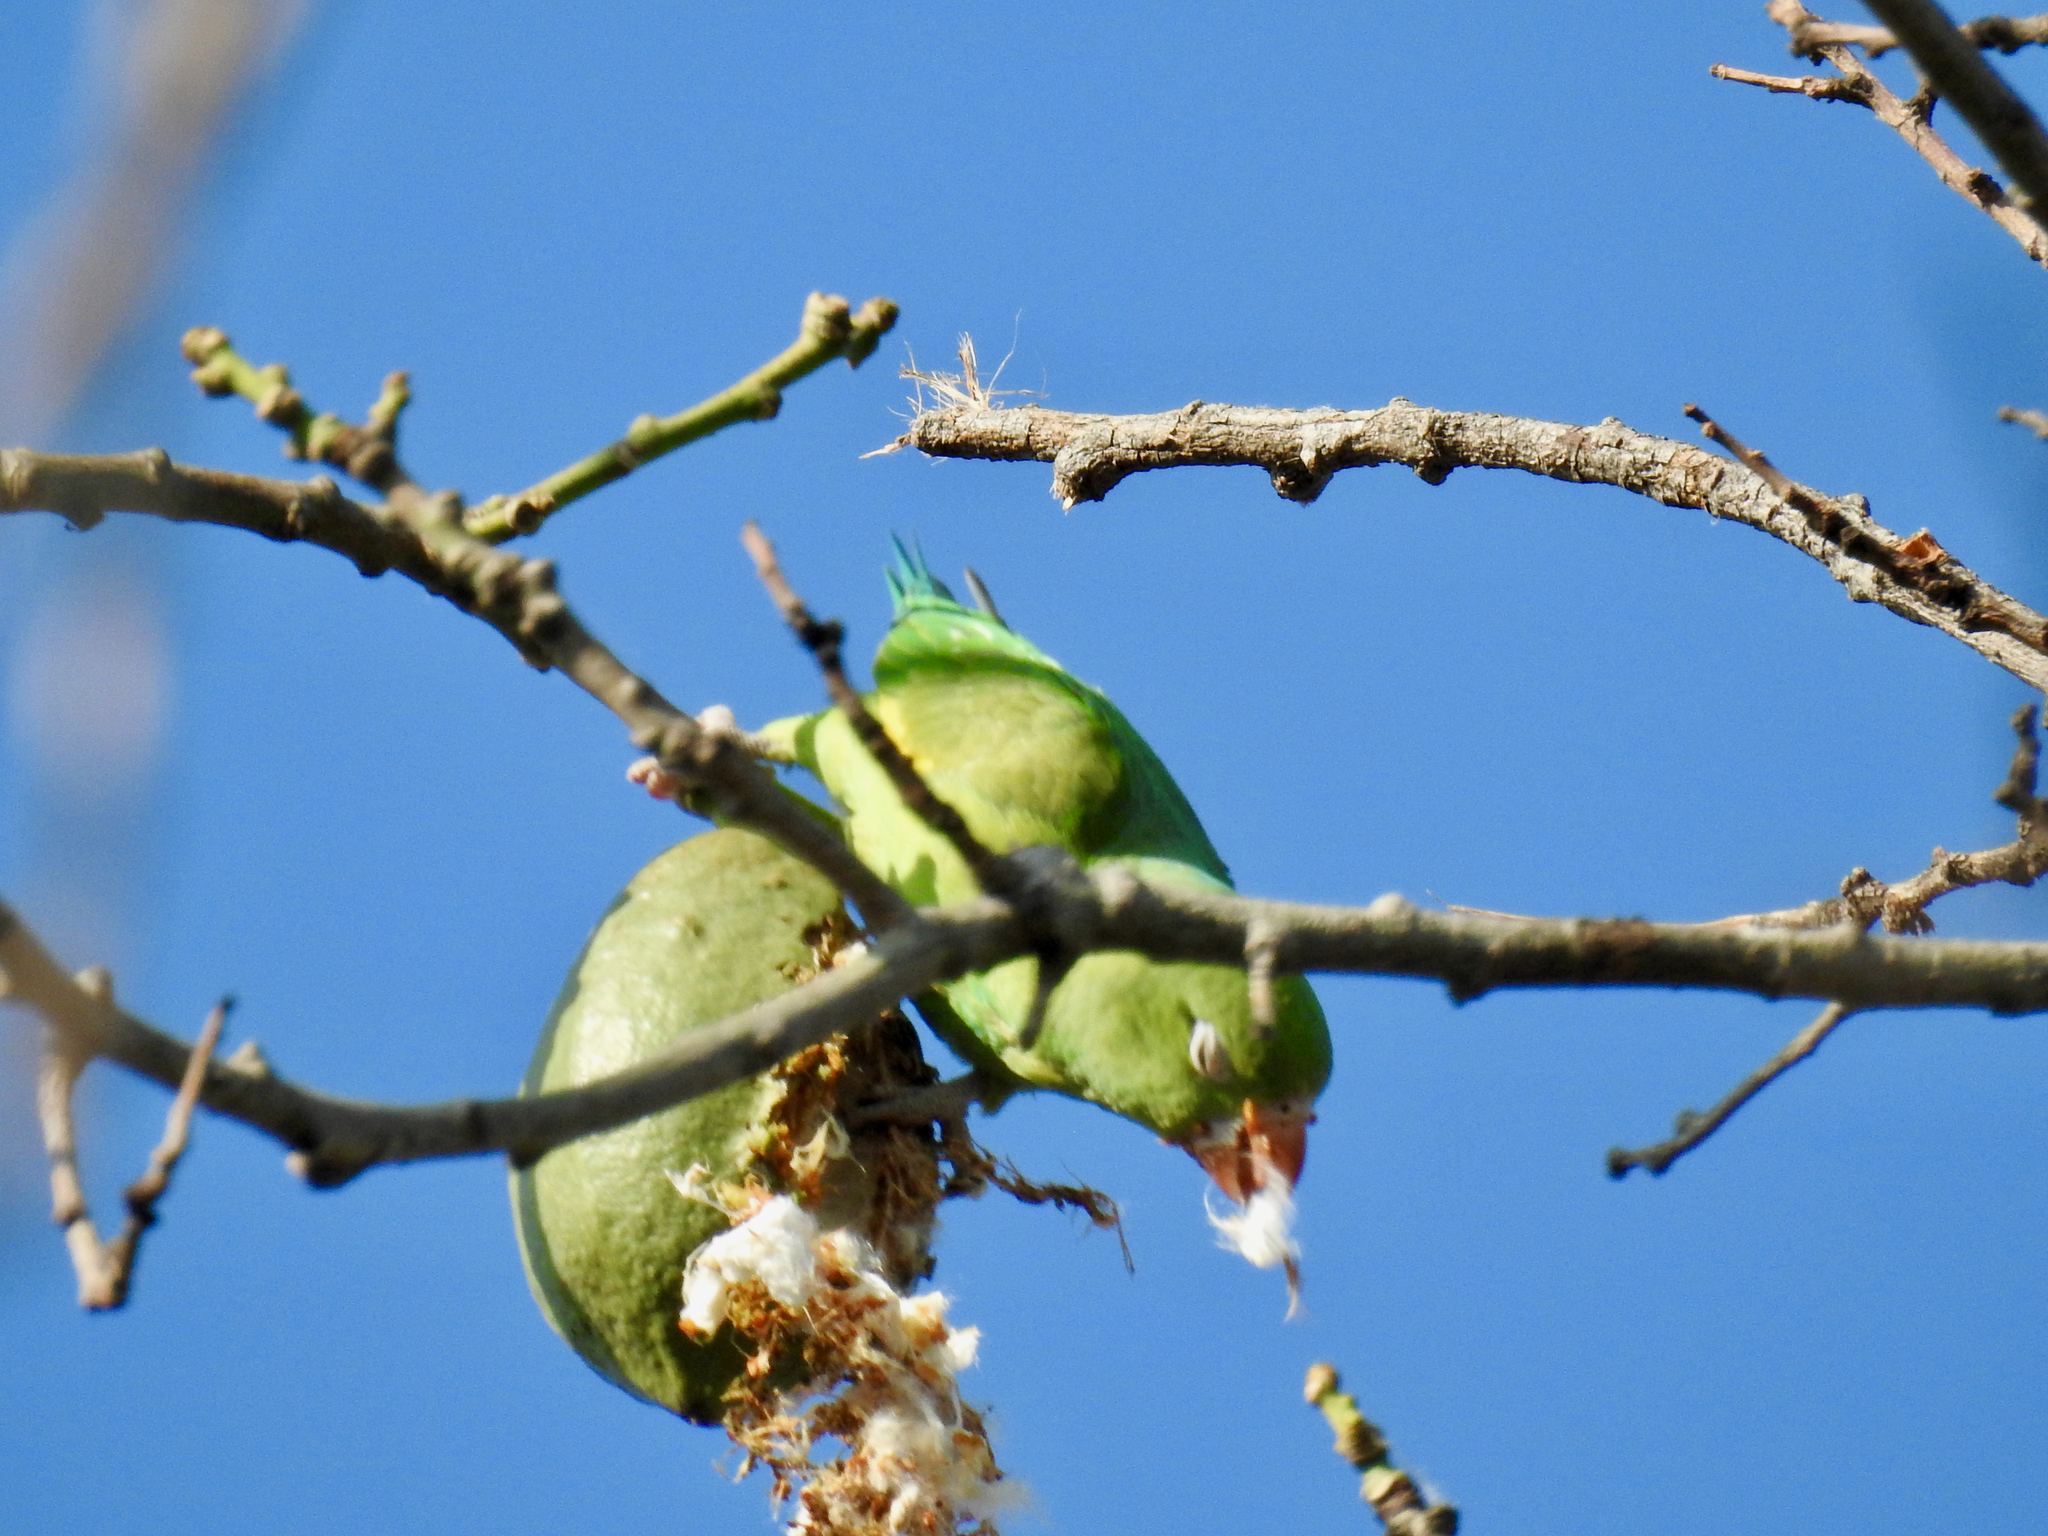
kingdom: Animalia
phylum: Chordata
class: Aves
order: Psittaciformes
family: Psittacidae
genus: Brotogeris
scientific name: Brotogeris chiriri
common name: Yellow-chevroned parakeet
